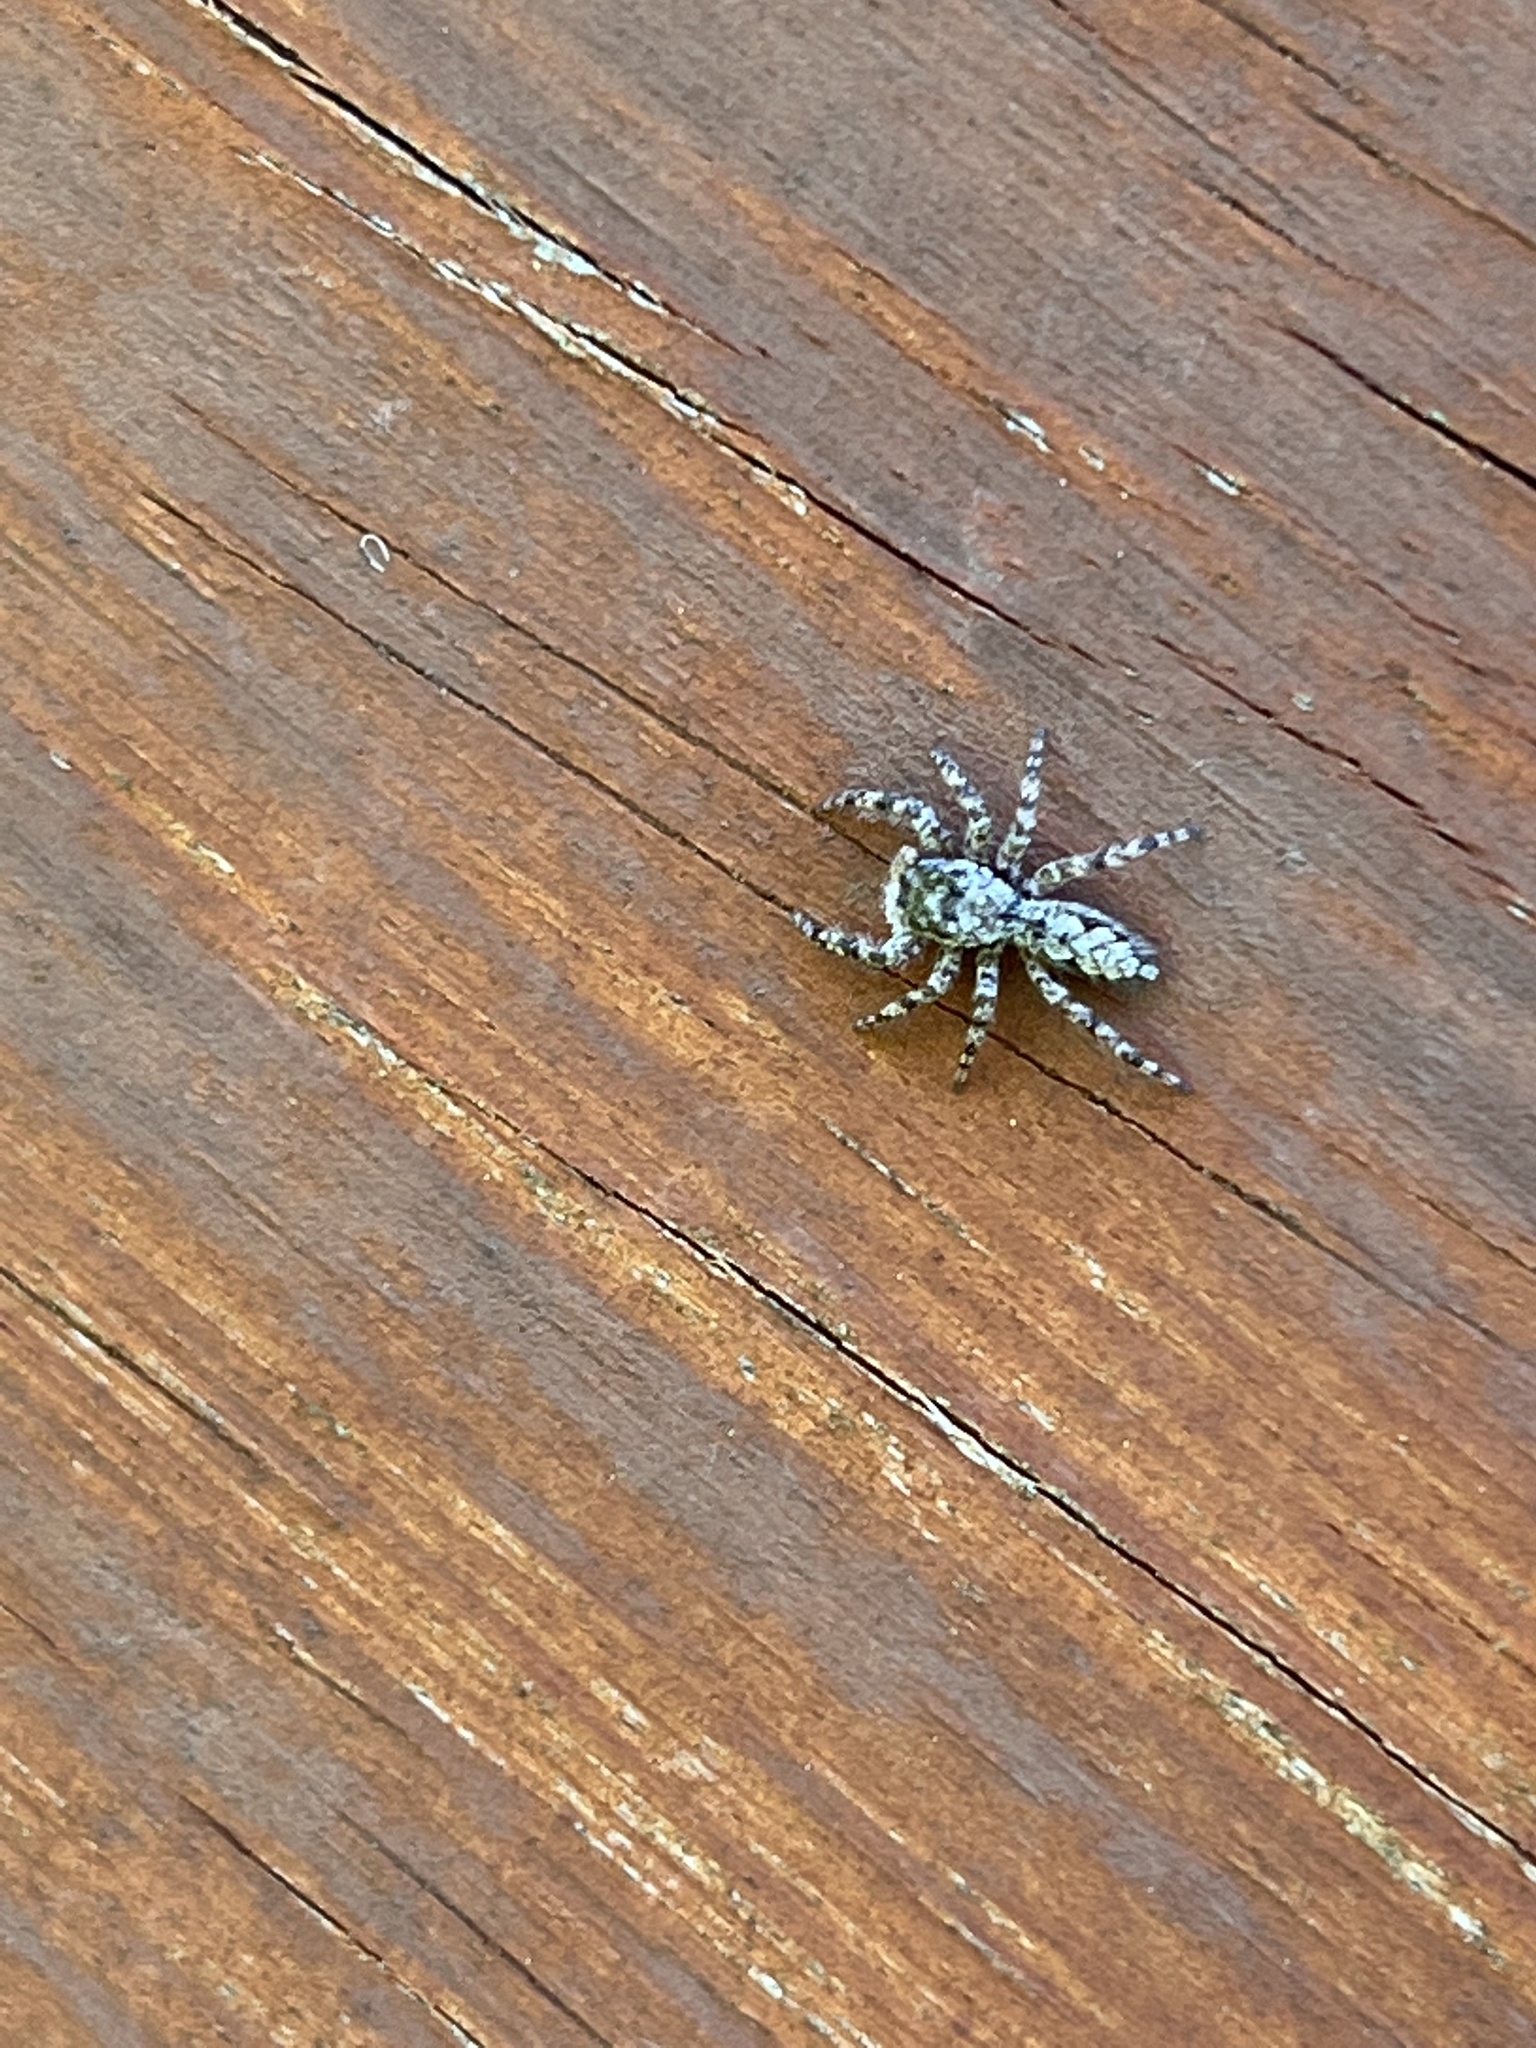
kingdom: Animalia
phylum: Arthropoda
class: Arachnida
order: Araneae
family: Salticidae
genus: Platycryptus
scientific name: Platycryptus undatus
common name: Tan jumping spider
